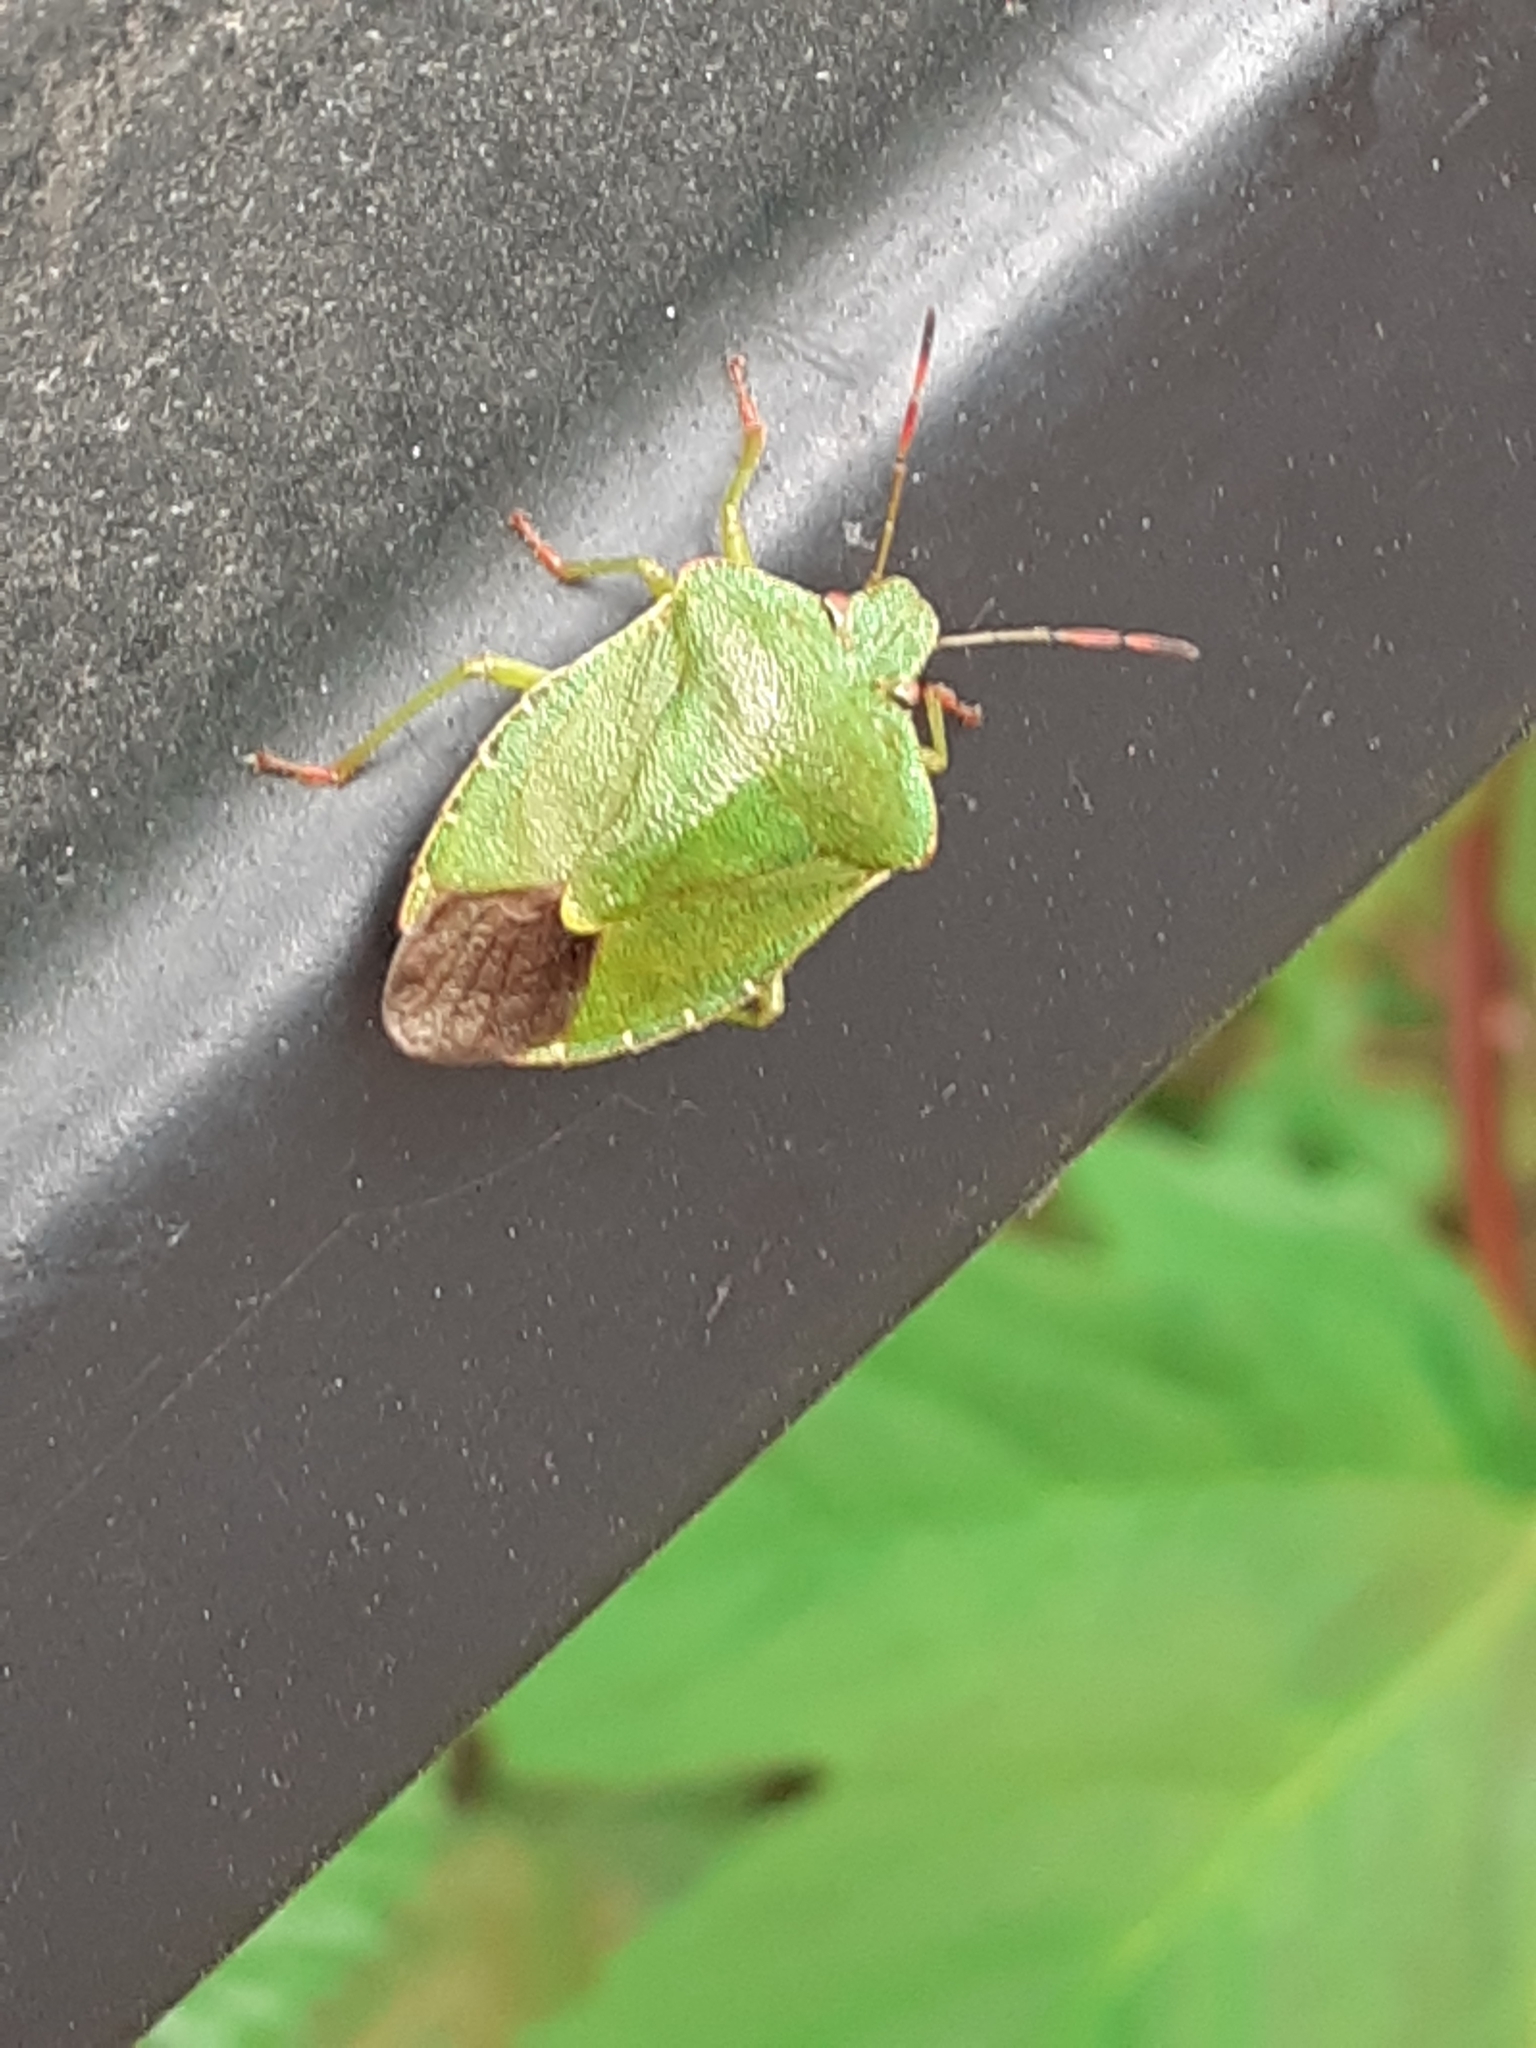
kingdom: Animalia
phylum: Arthropoda
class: Insecta
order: Hemiptera
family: Pentatomidae
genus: Palomena
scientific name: Palomena prasina
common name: Green shieldbug
